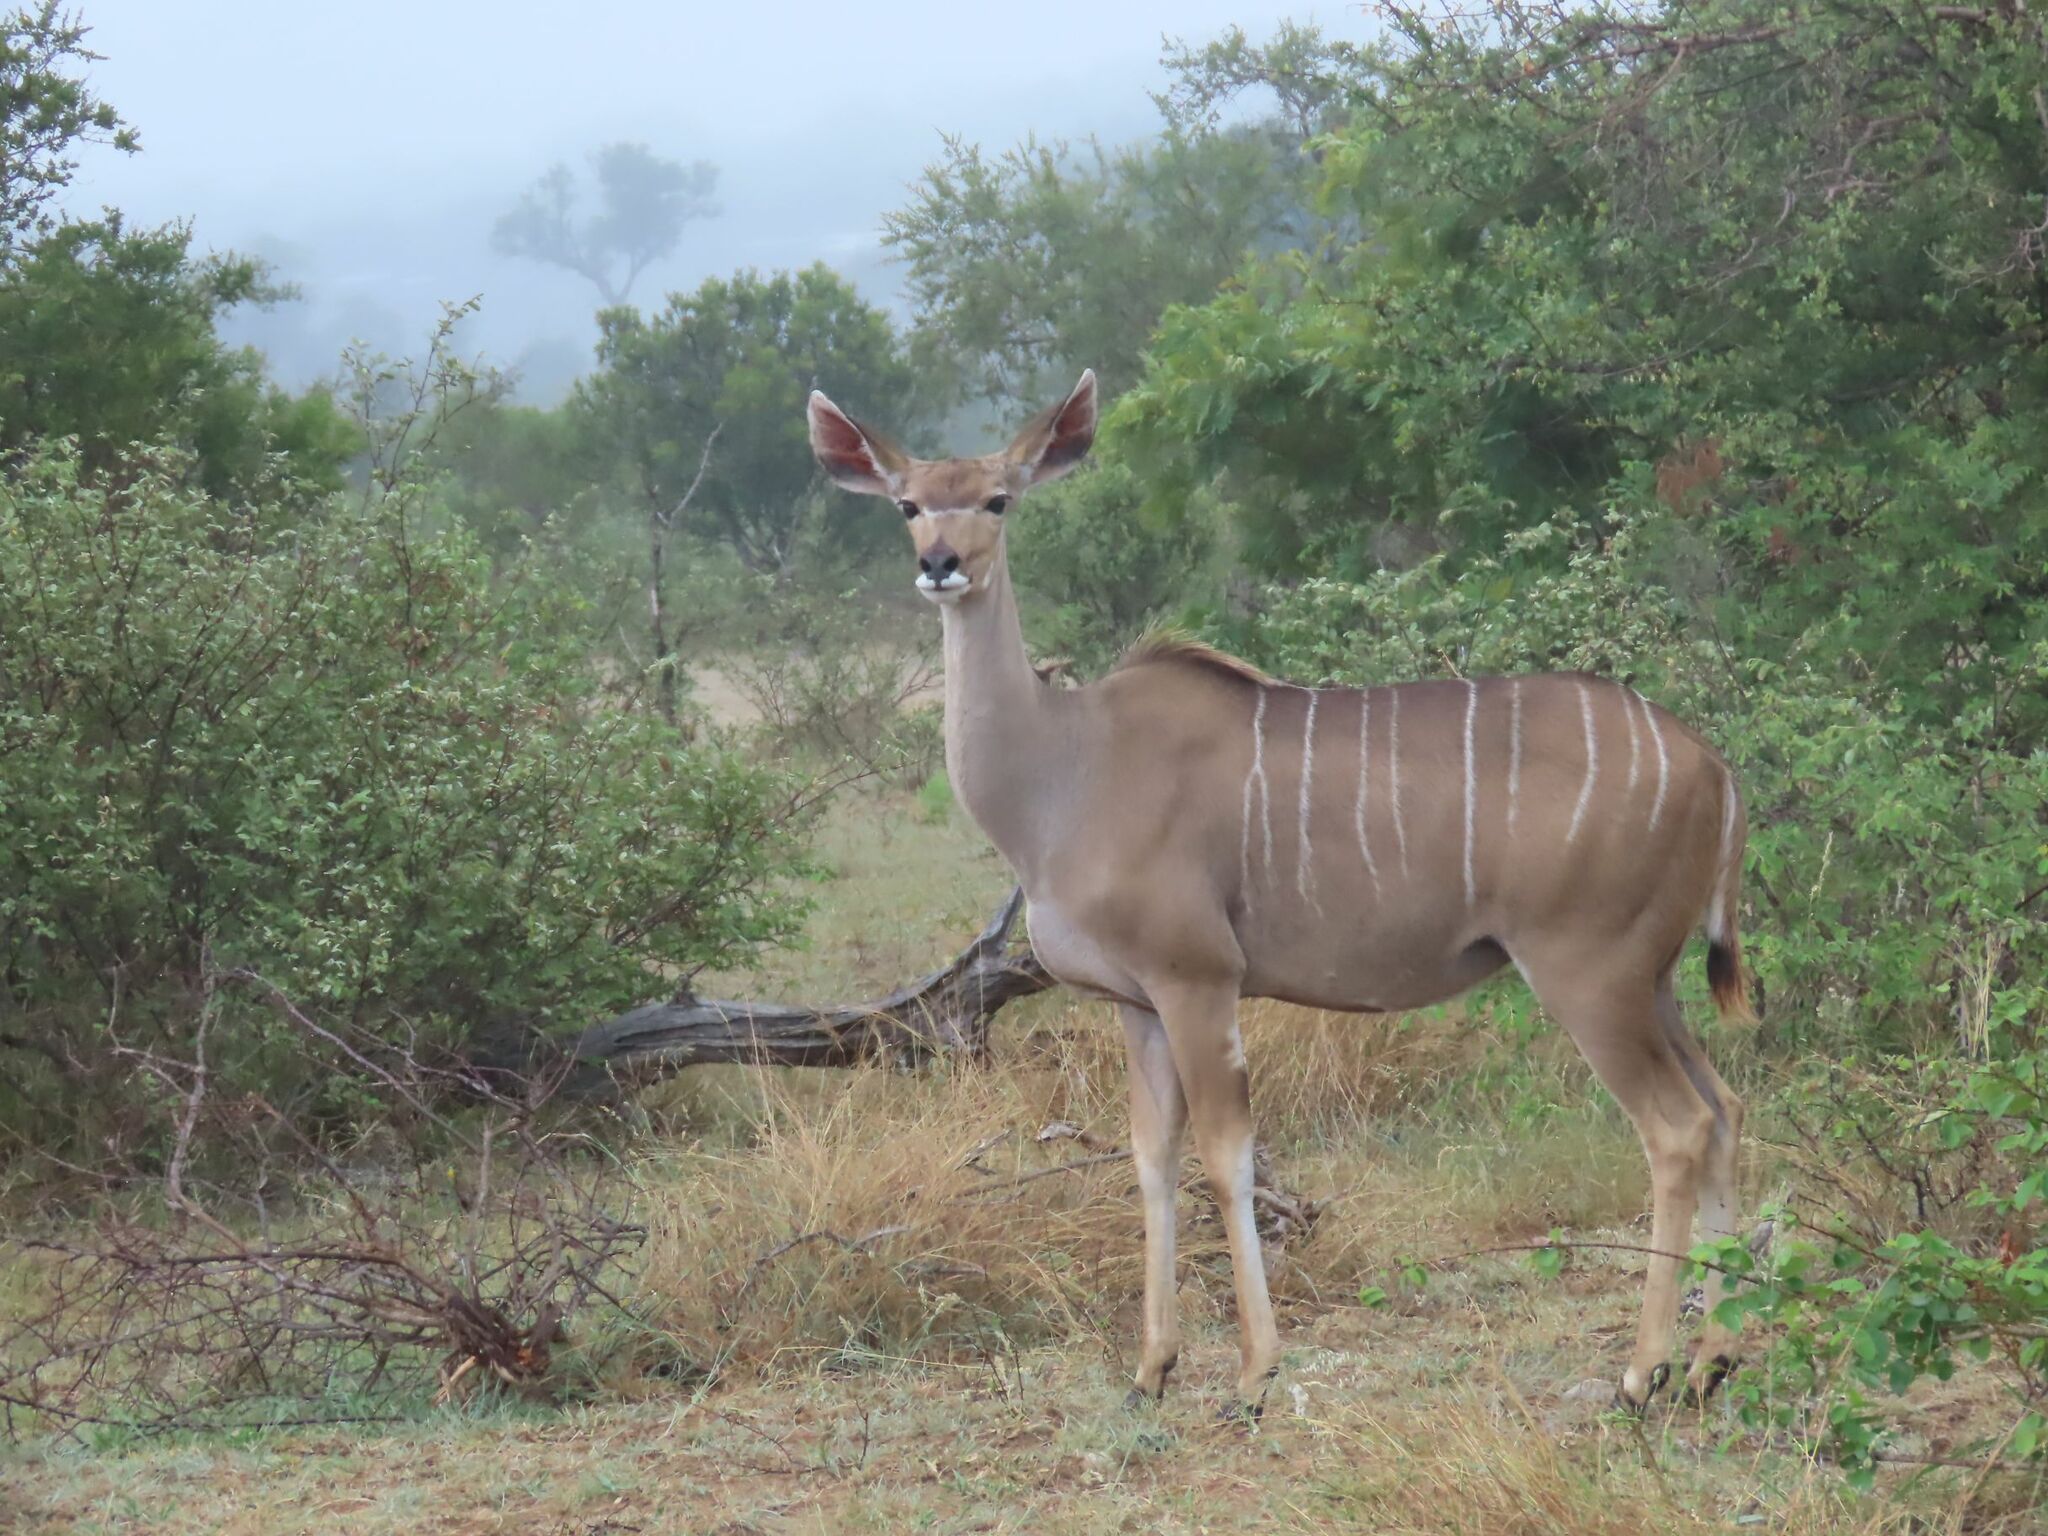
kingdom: Animalia
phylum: Chordata
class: Mammalia
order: Artiodactyla
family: Bovidae
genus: Tragelaphus
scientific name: Tragelaphus strepsiceros
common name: Greater kudu
